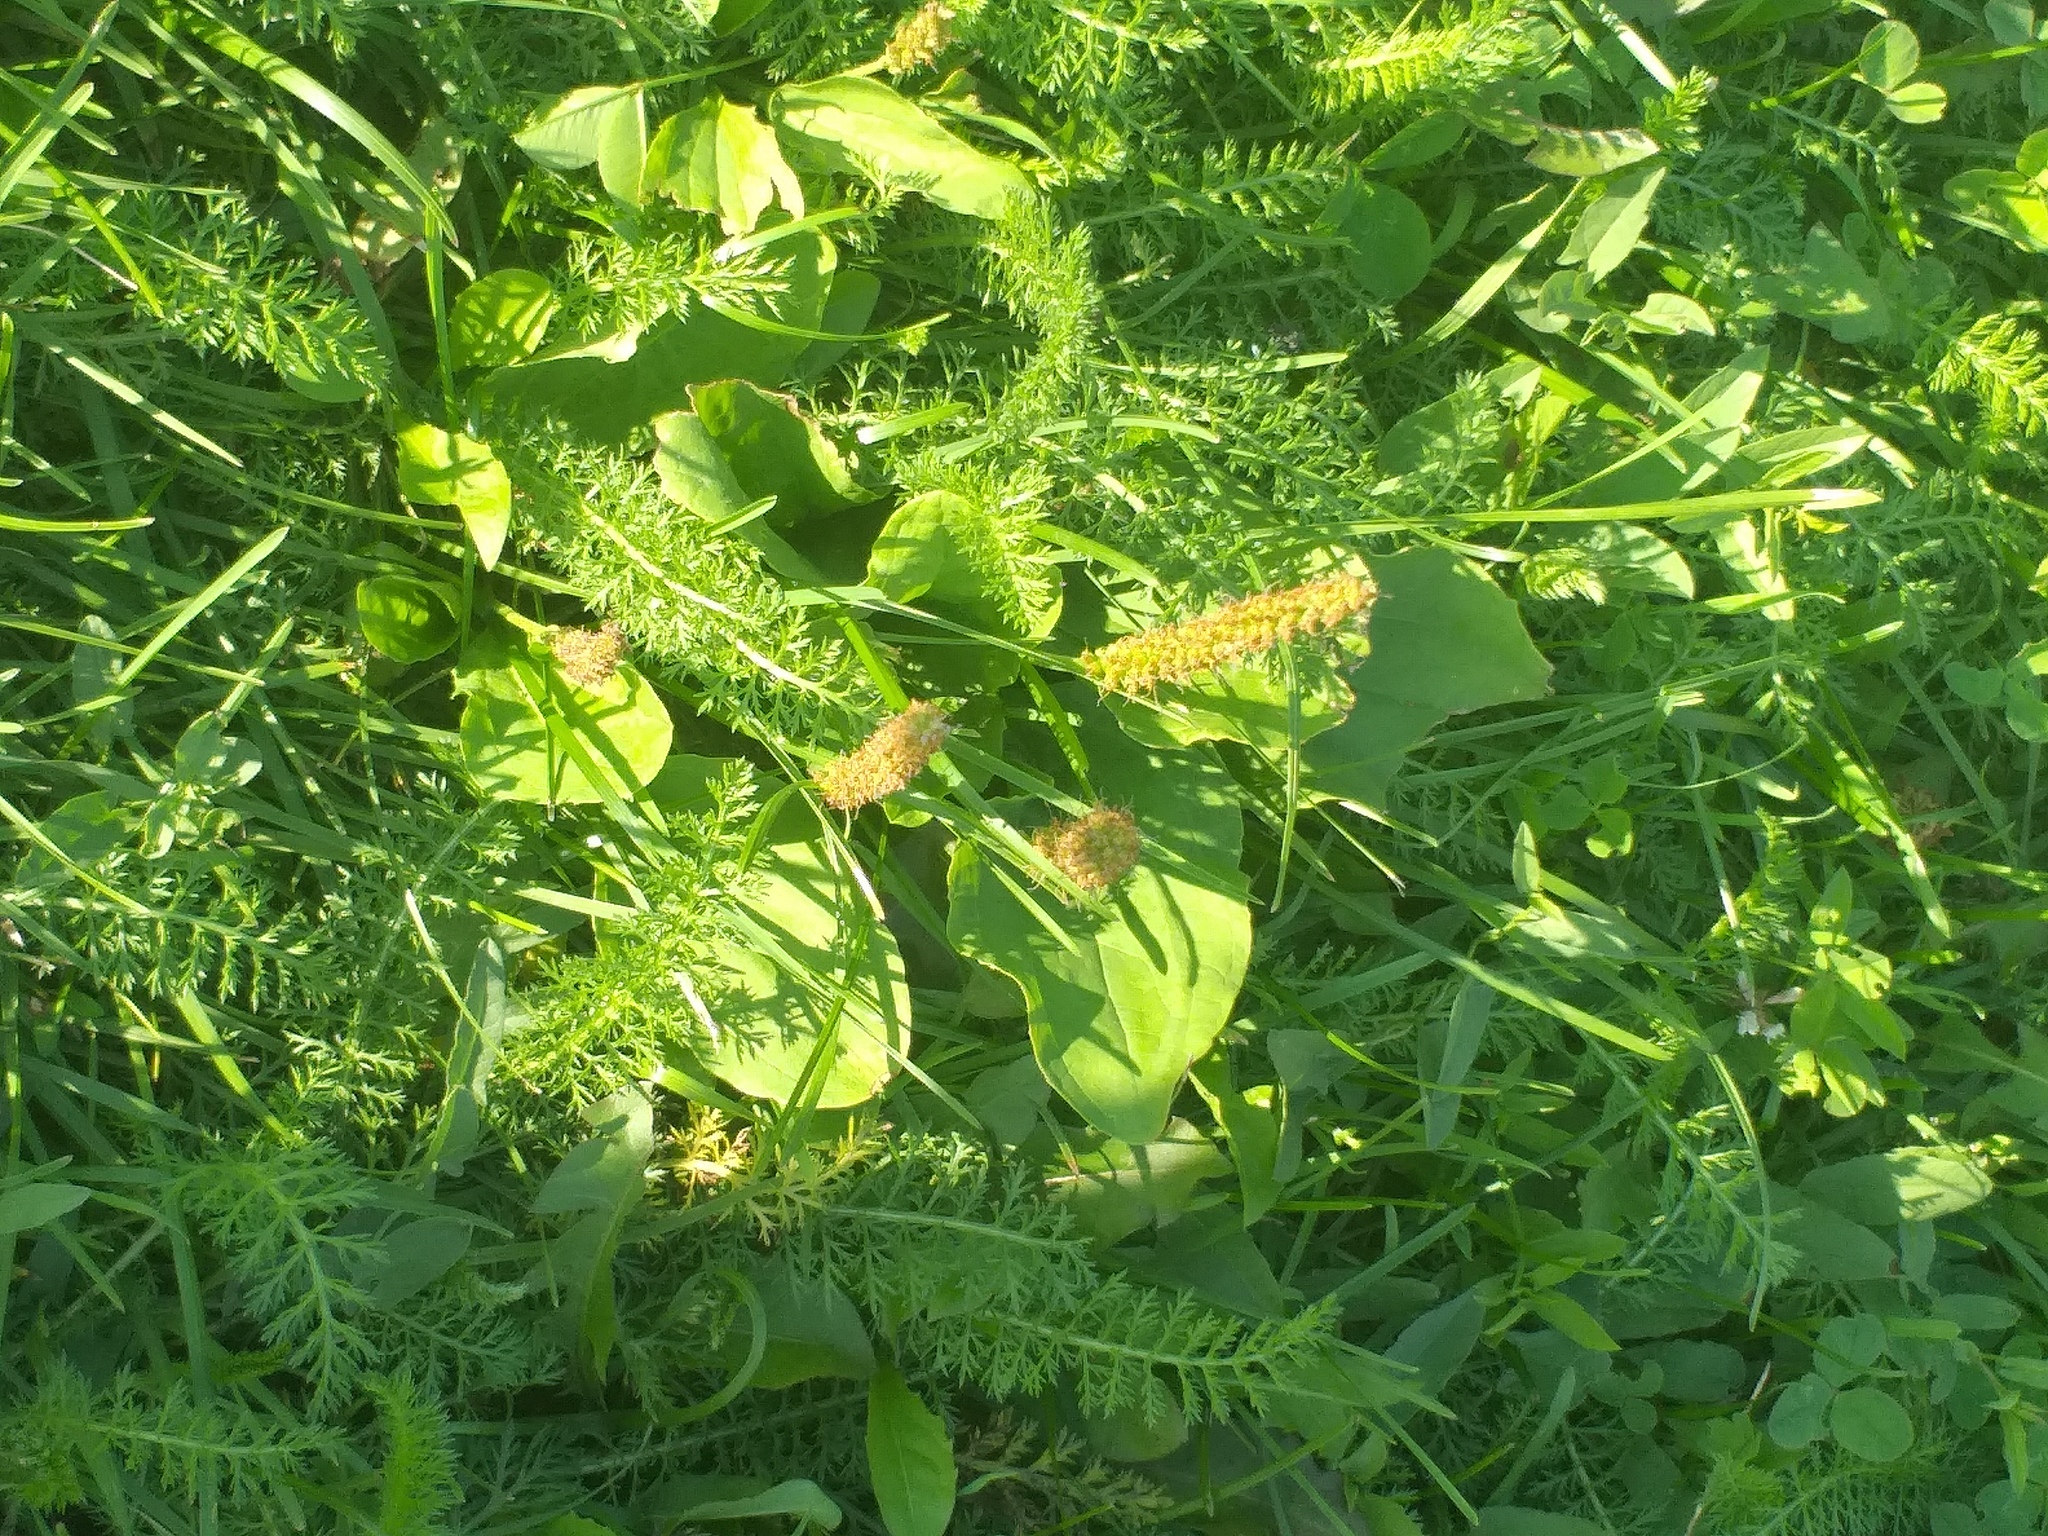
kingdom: Plantae
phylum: Tracheophyta
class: Magnoliopsida
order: Lamiales
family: Plantaginaceae
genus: Plantago
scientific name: Plantago major
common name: Common plantain
